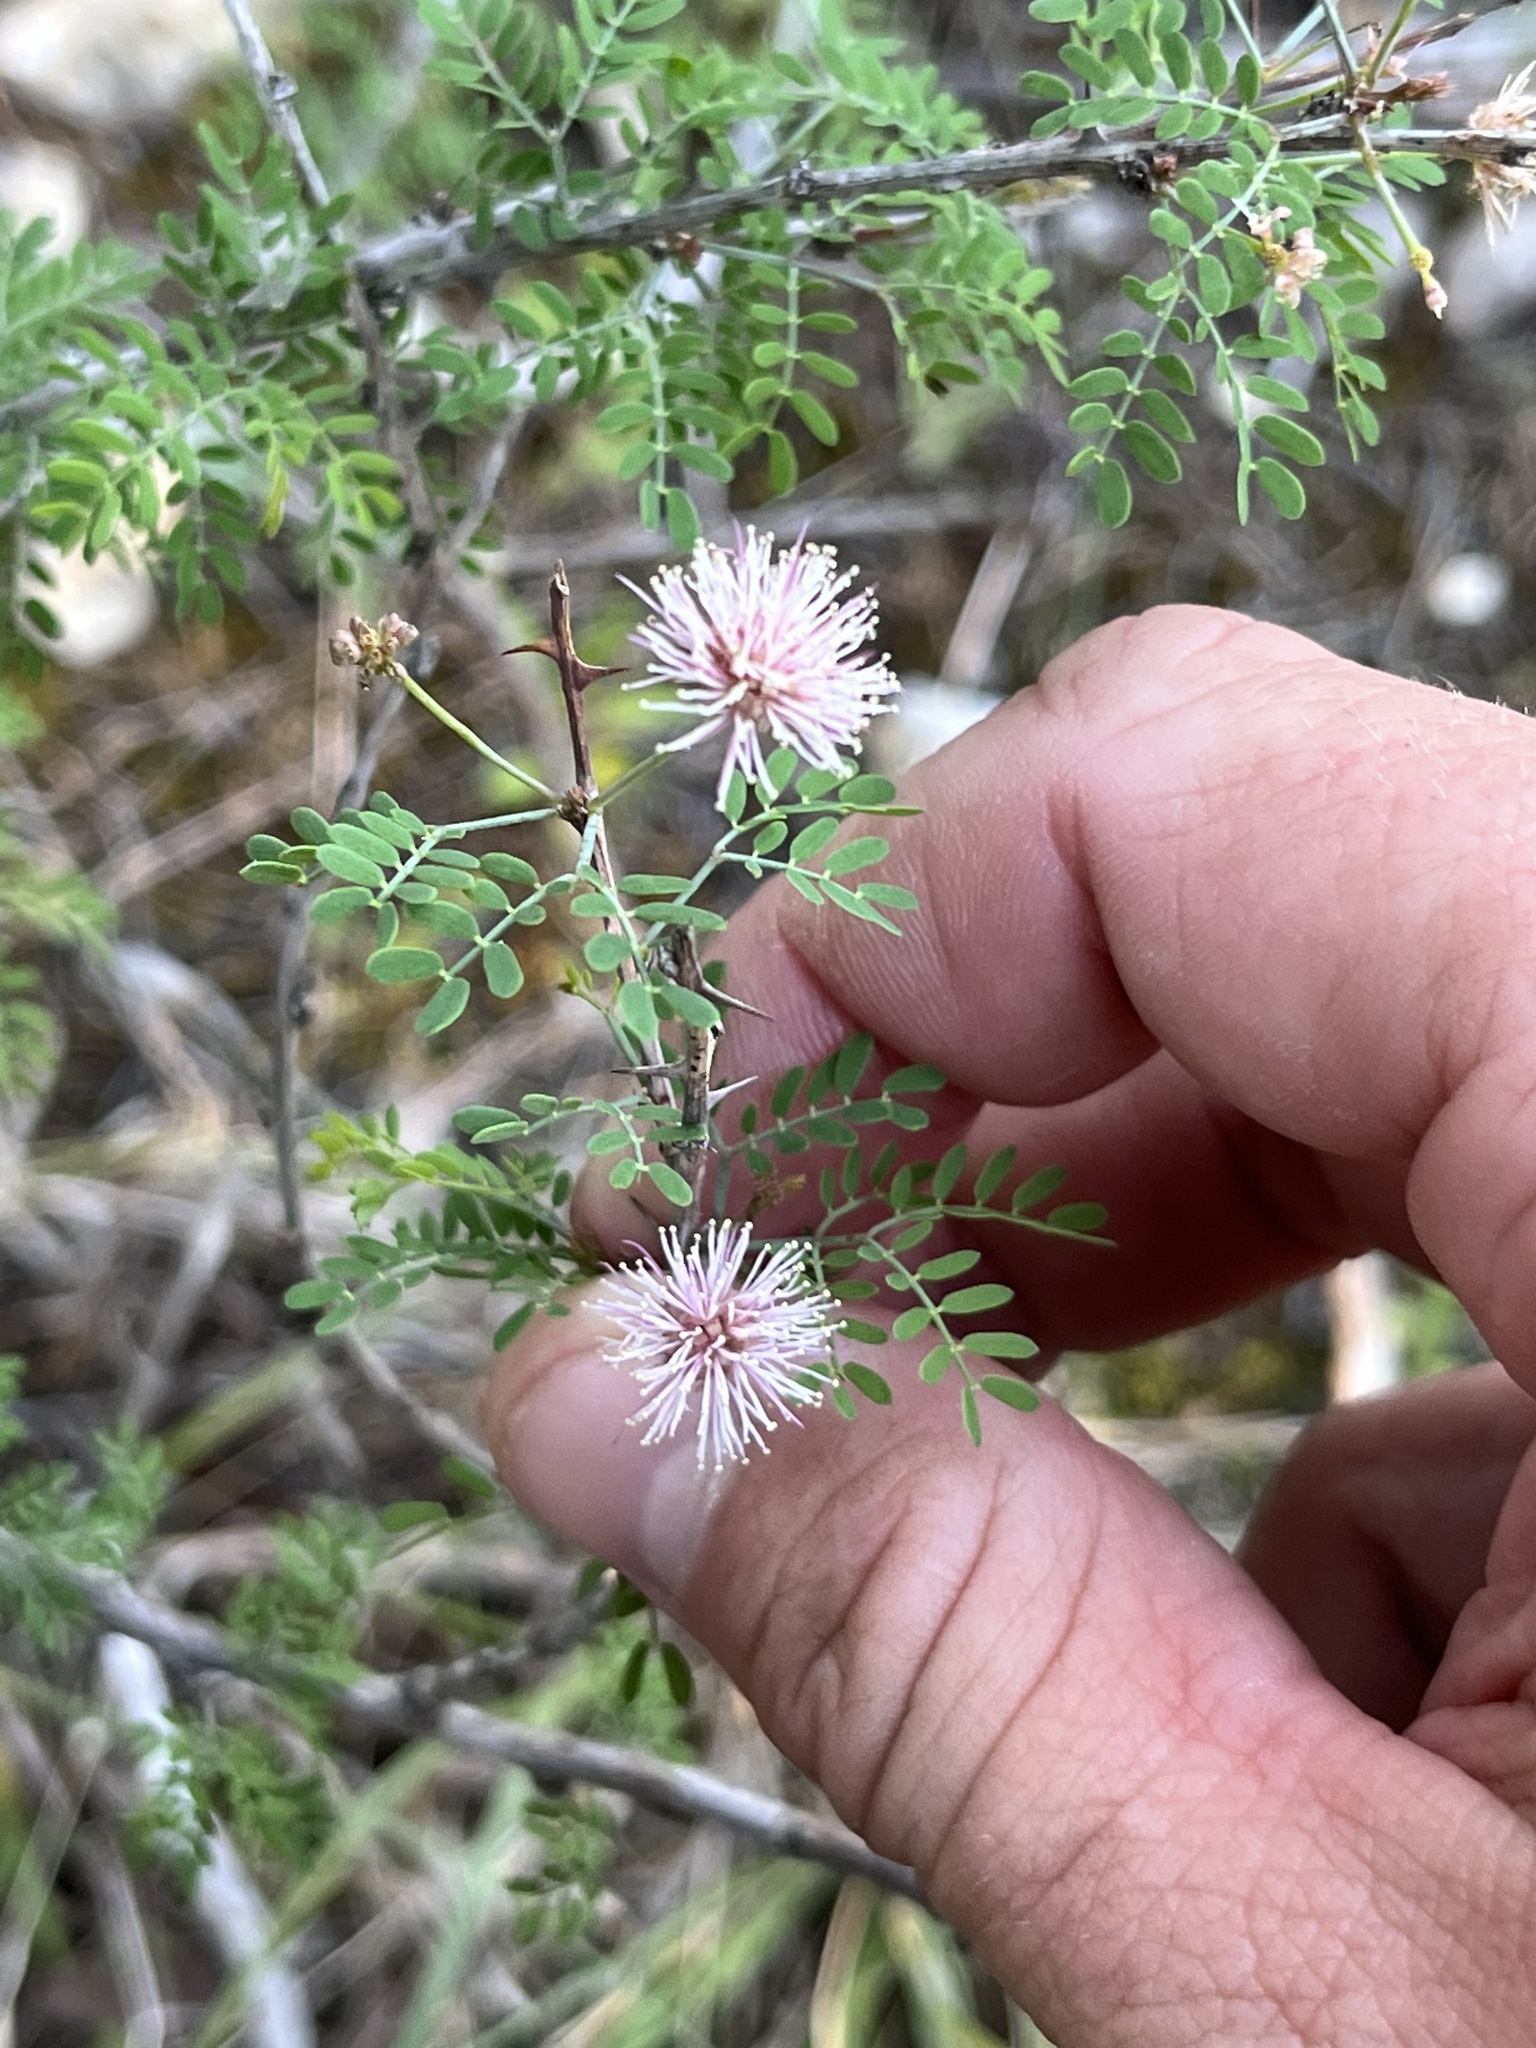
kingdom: Plantae
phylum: Tracheophyta
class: Magnoliopsida
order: Fabales
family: Fabaceae
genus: Mimosa
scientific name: Mimosa borealis
